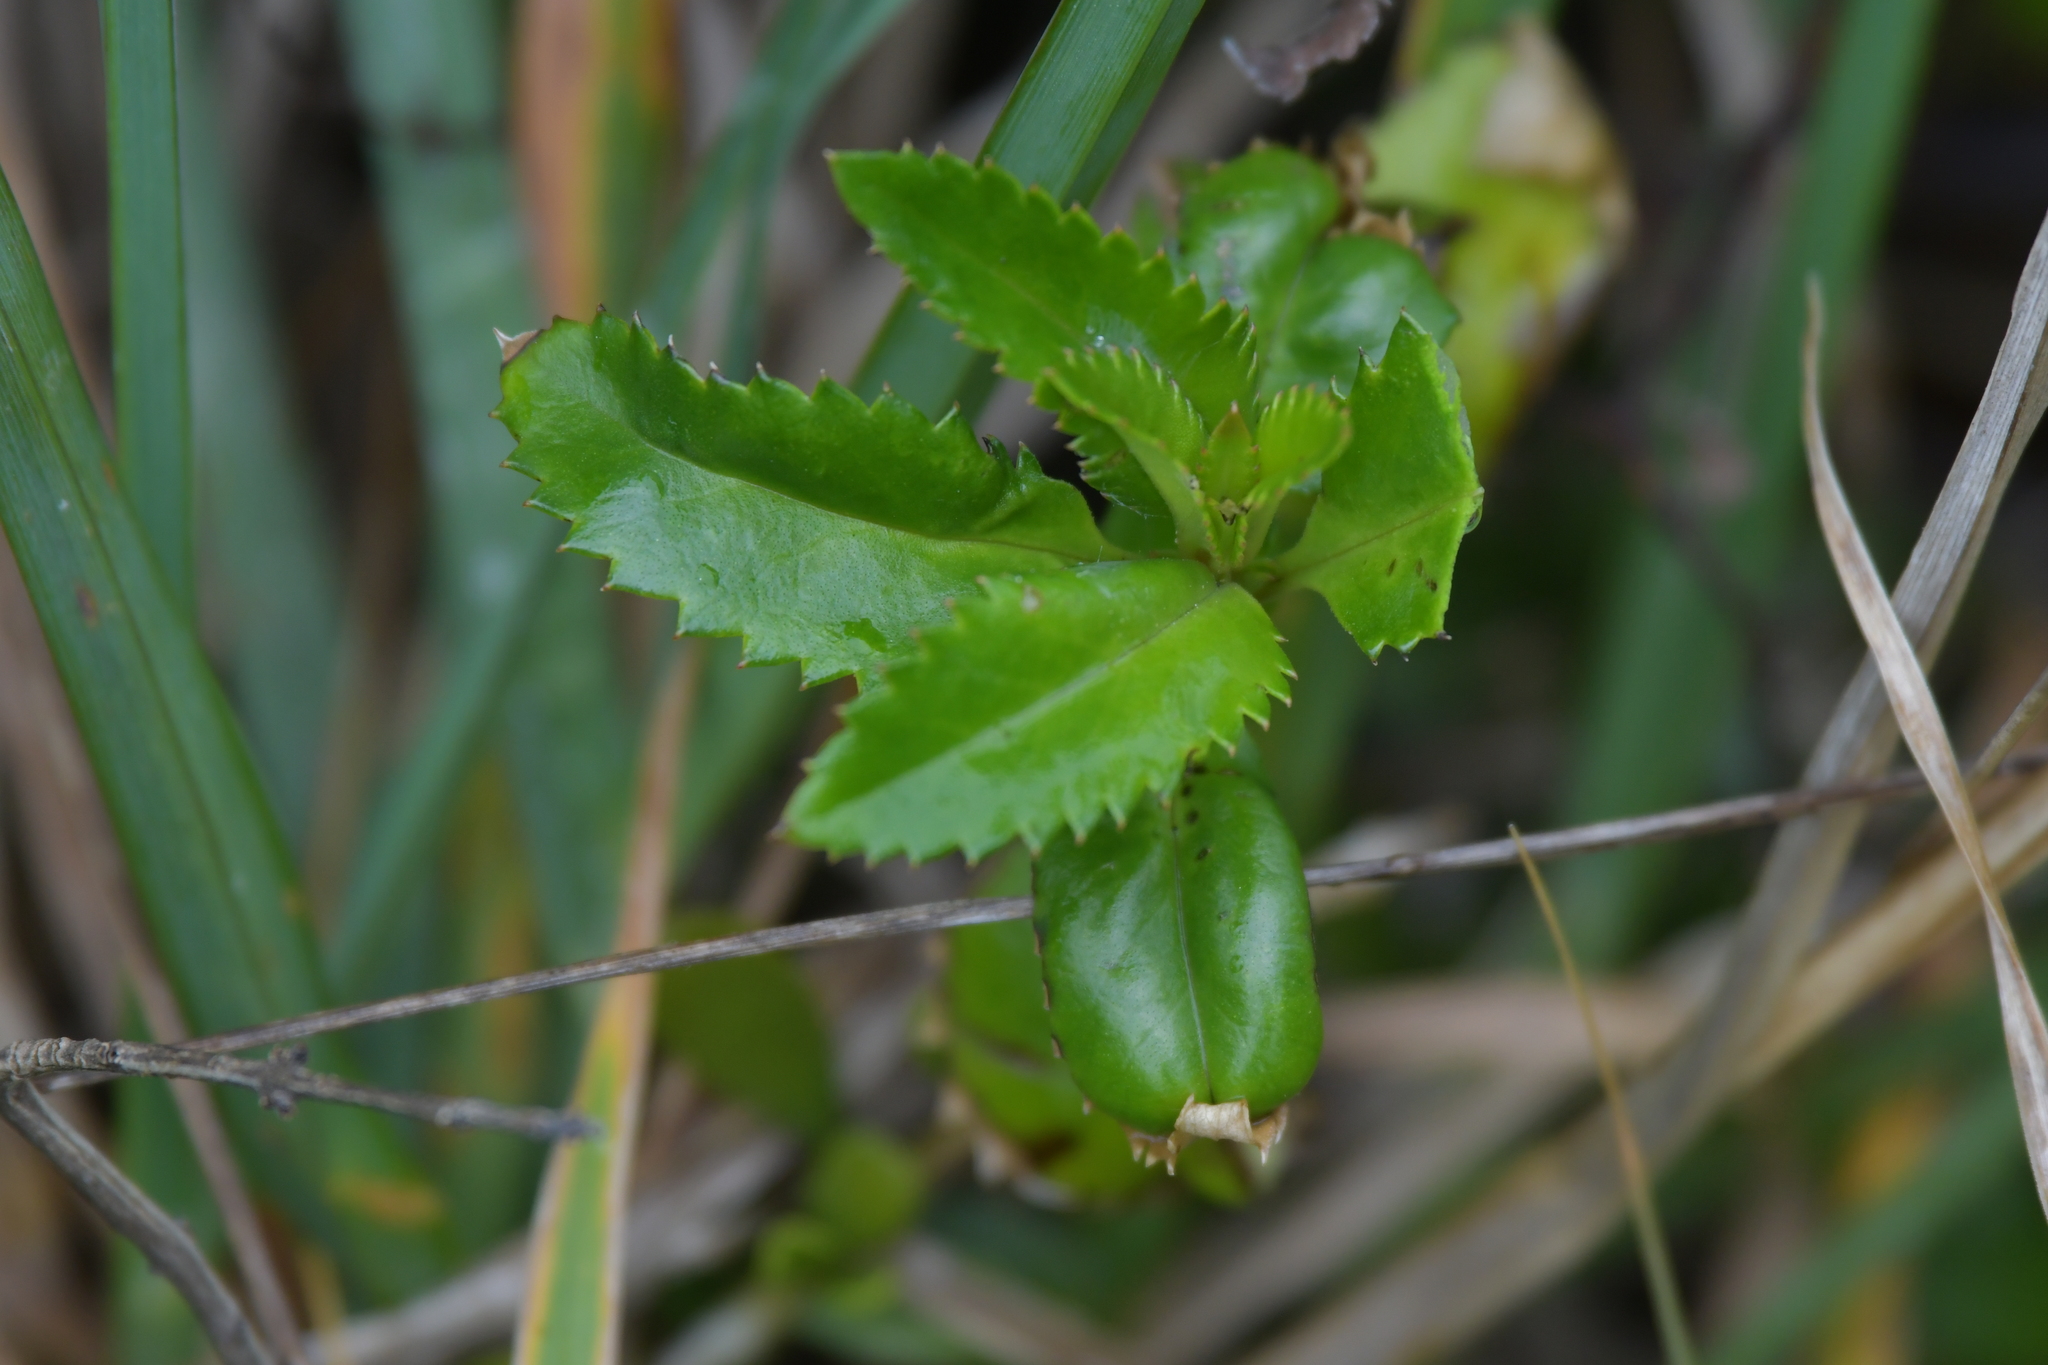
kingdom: Plantae
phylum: Tracheophyta
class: Magnoliopsida
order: Saxifragales
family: Haloragaceae
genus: Haloragis
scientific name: Haloragis erecta
